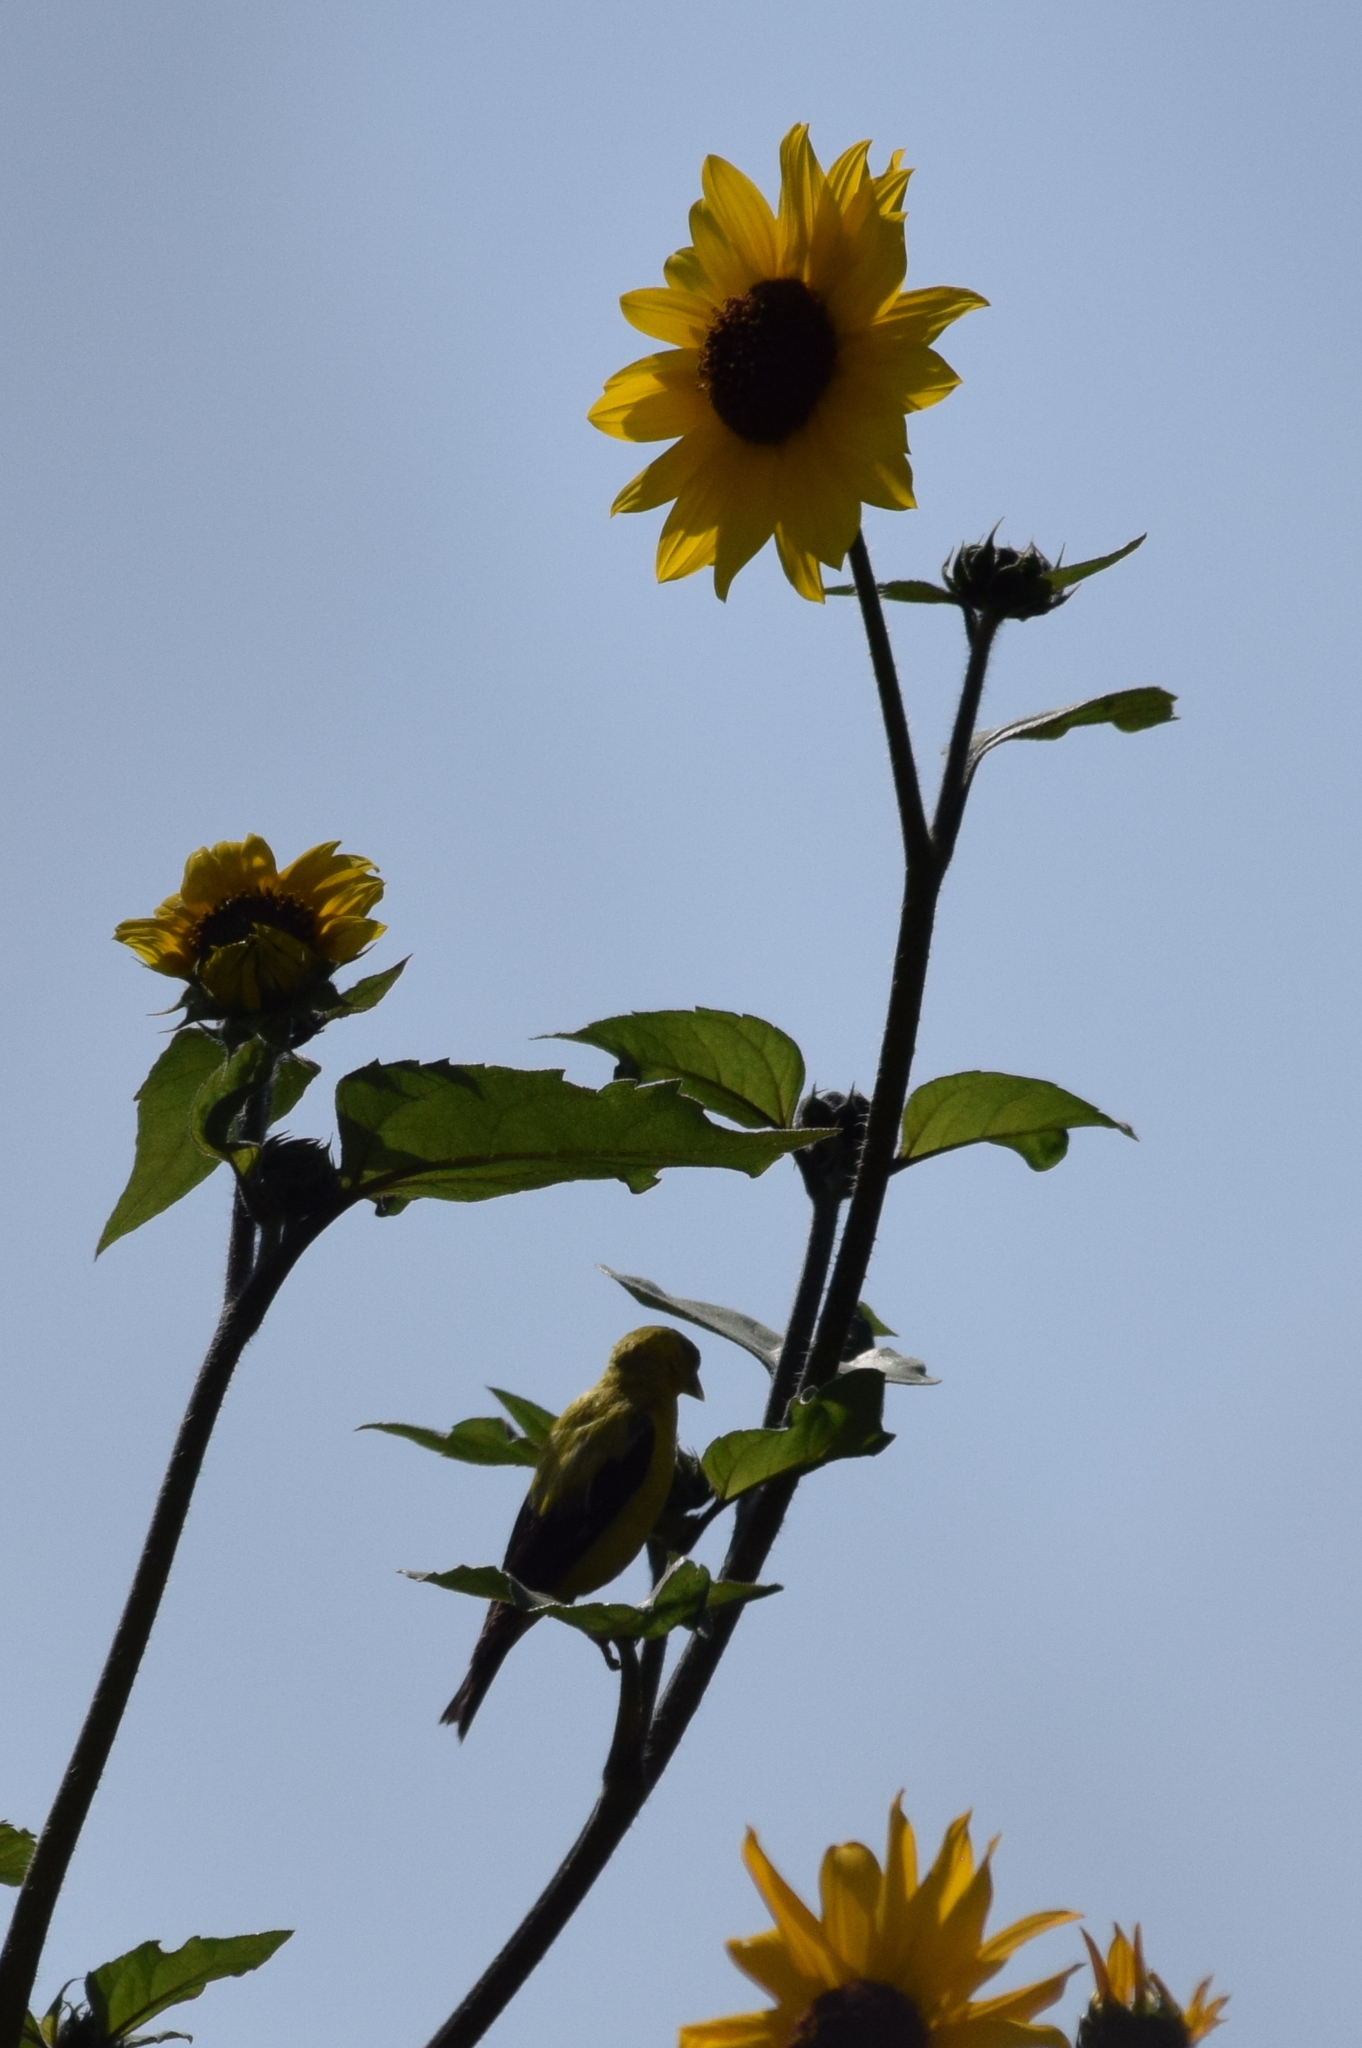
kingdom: Animalia
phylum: Chordata
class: Aves
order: Passeriformes
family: Fringillidae
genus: Spinus
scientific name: Spinus psaltria
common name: Lesser goldfinch
